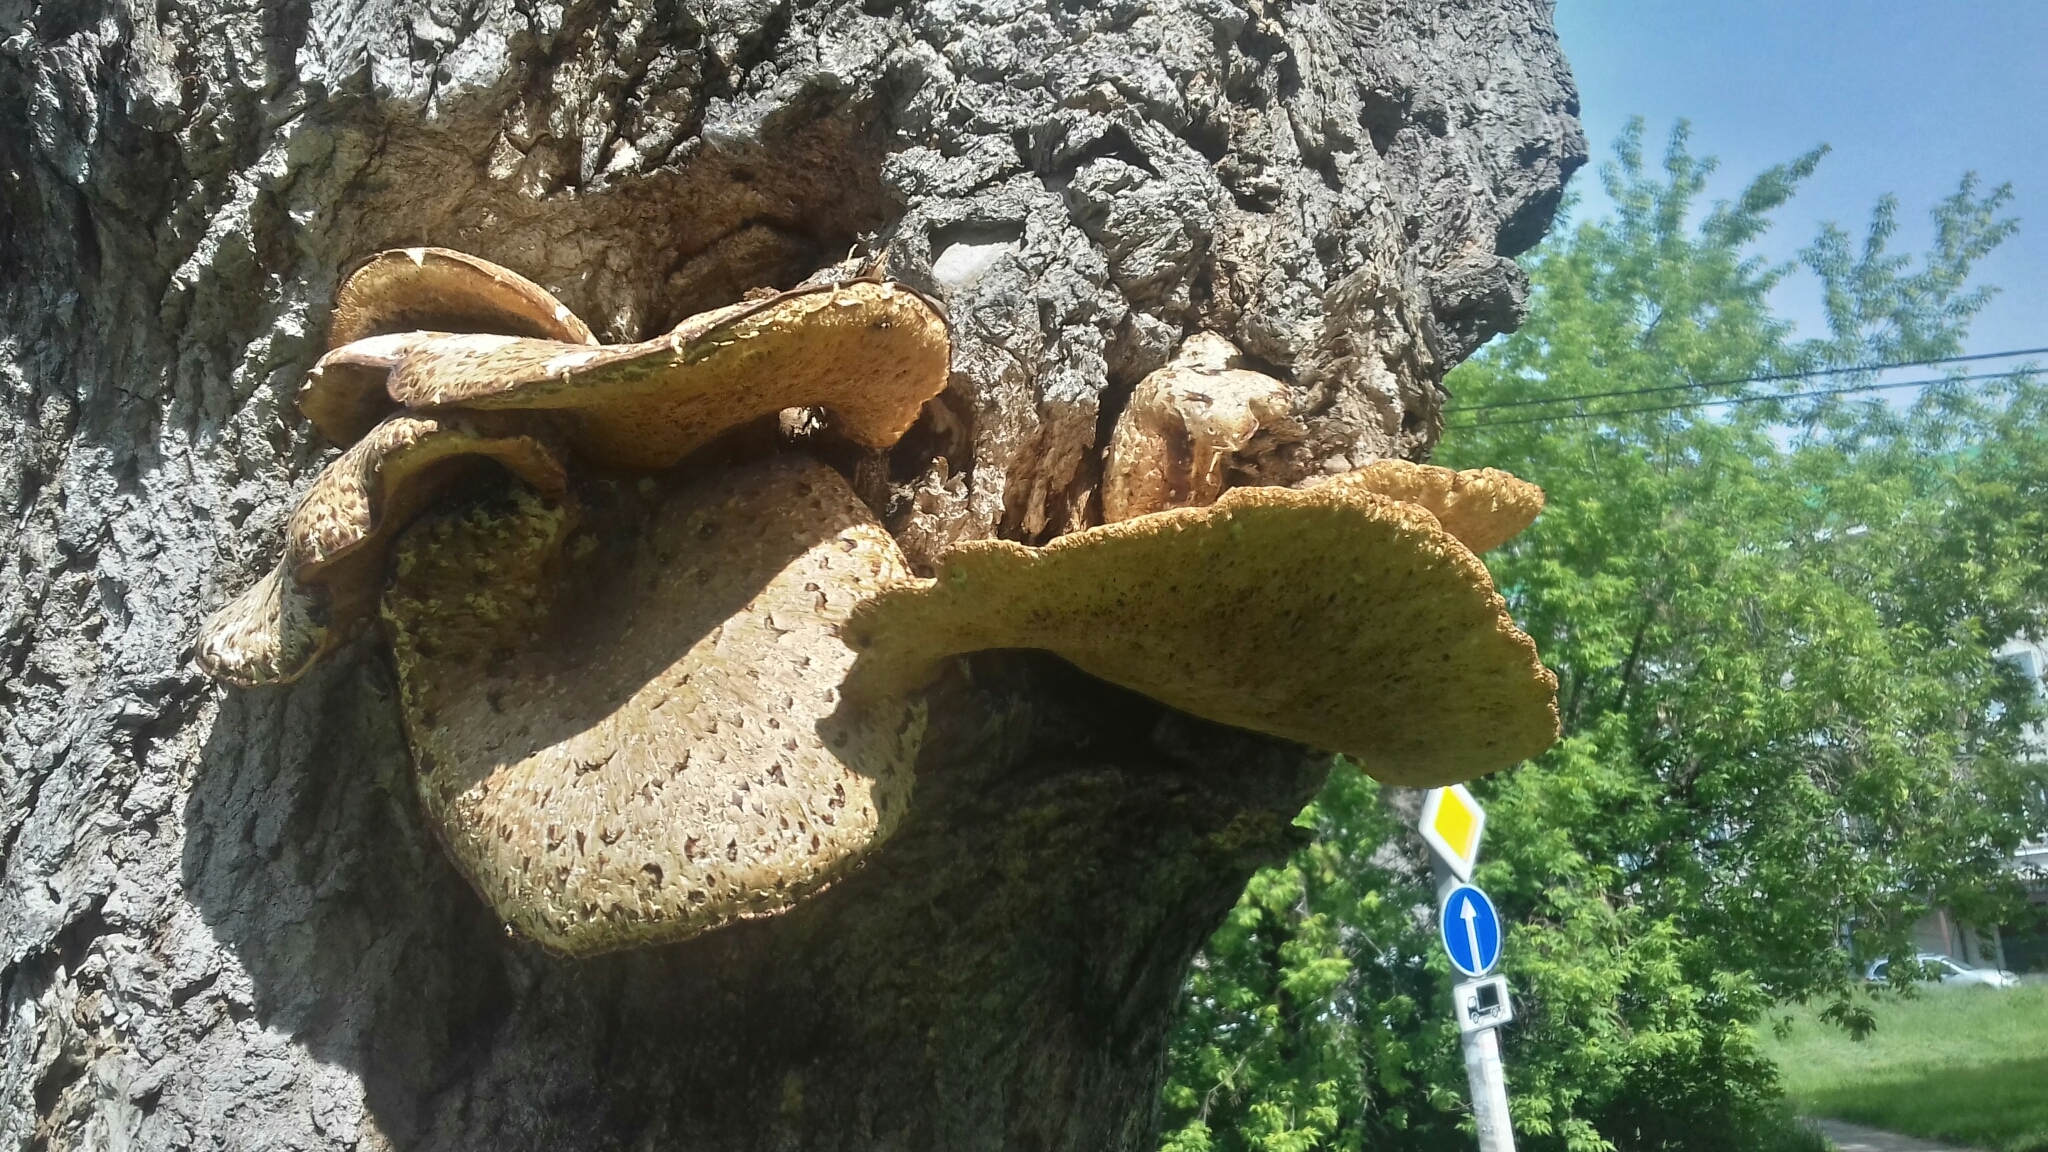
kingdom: Fungi
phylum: Basidiomycota
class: Agaricomycetes
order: Polyporales
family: Polyporaceae
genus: Cerioporus
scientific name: Cerioporus squamosus
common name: Dryad's saddle
